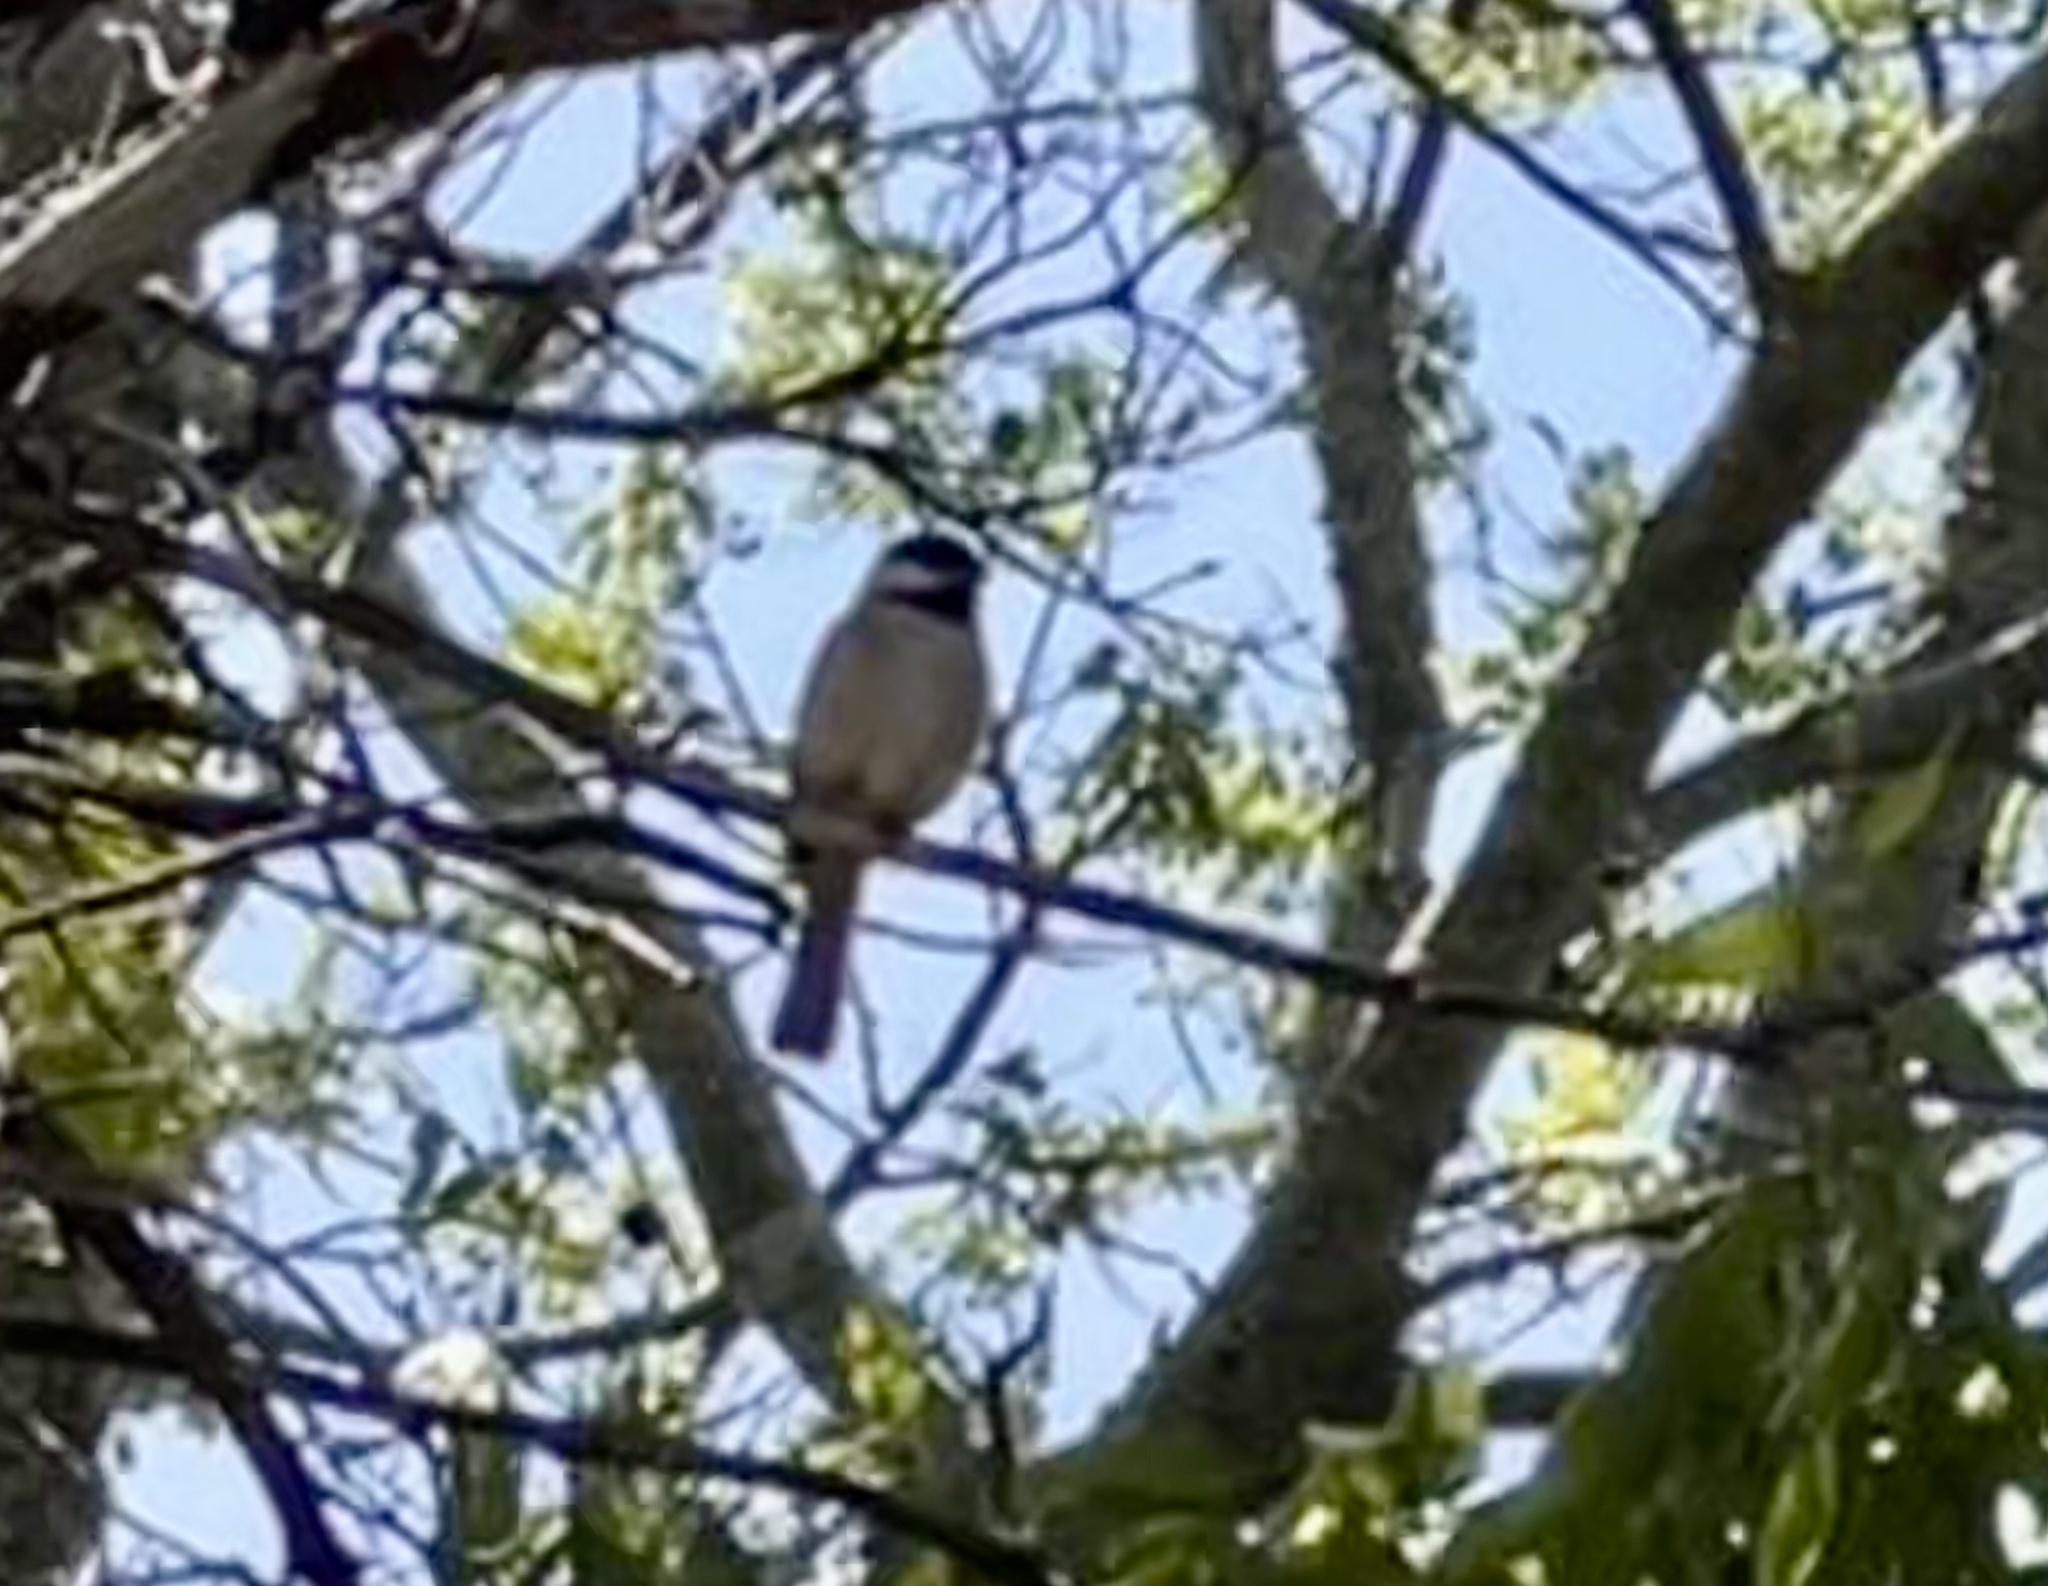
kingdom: Animalia
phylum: Chordata
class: Aves
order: Passeriformes
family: Paridae
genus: Poecile
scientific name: Poecile carolinensis
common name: Carolina chickadee
